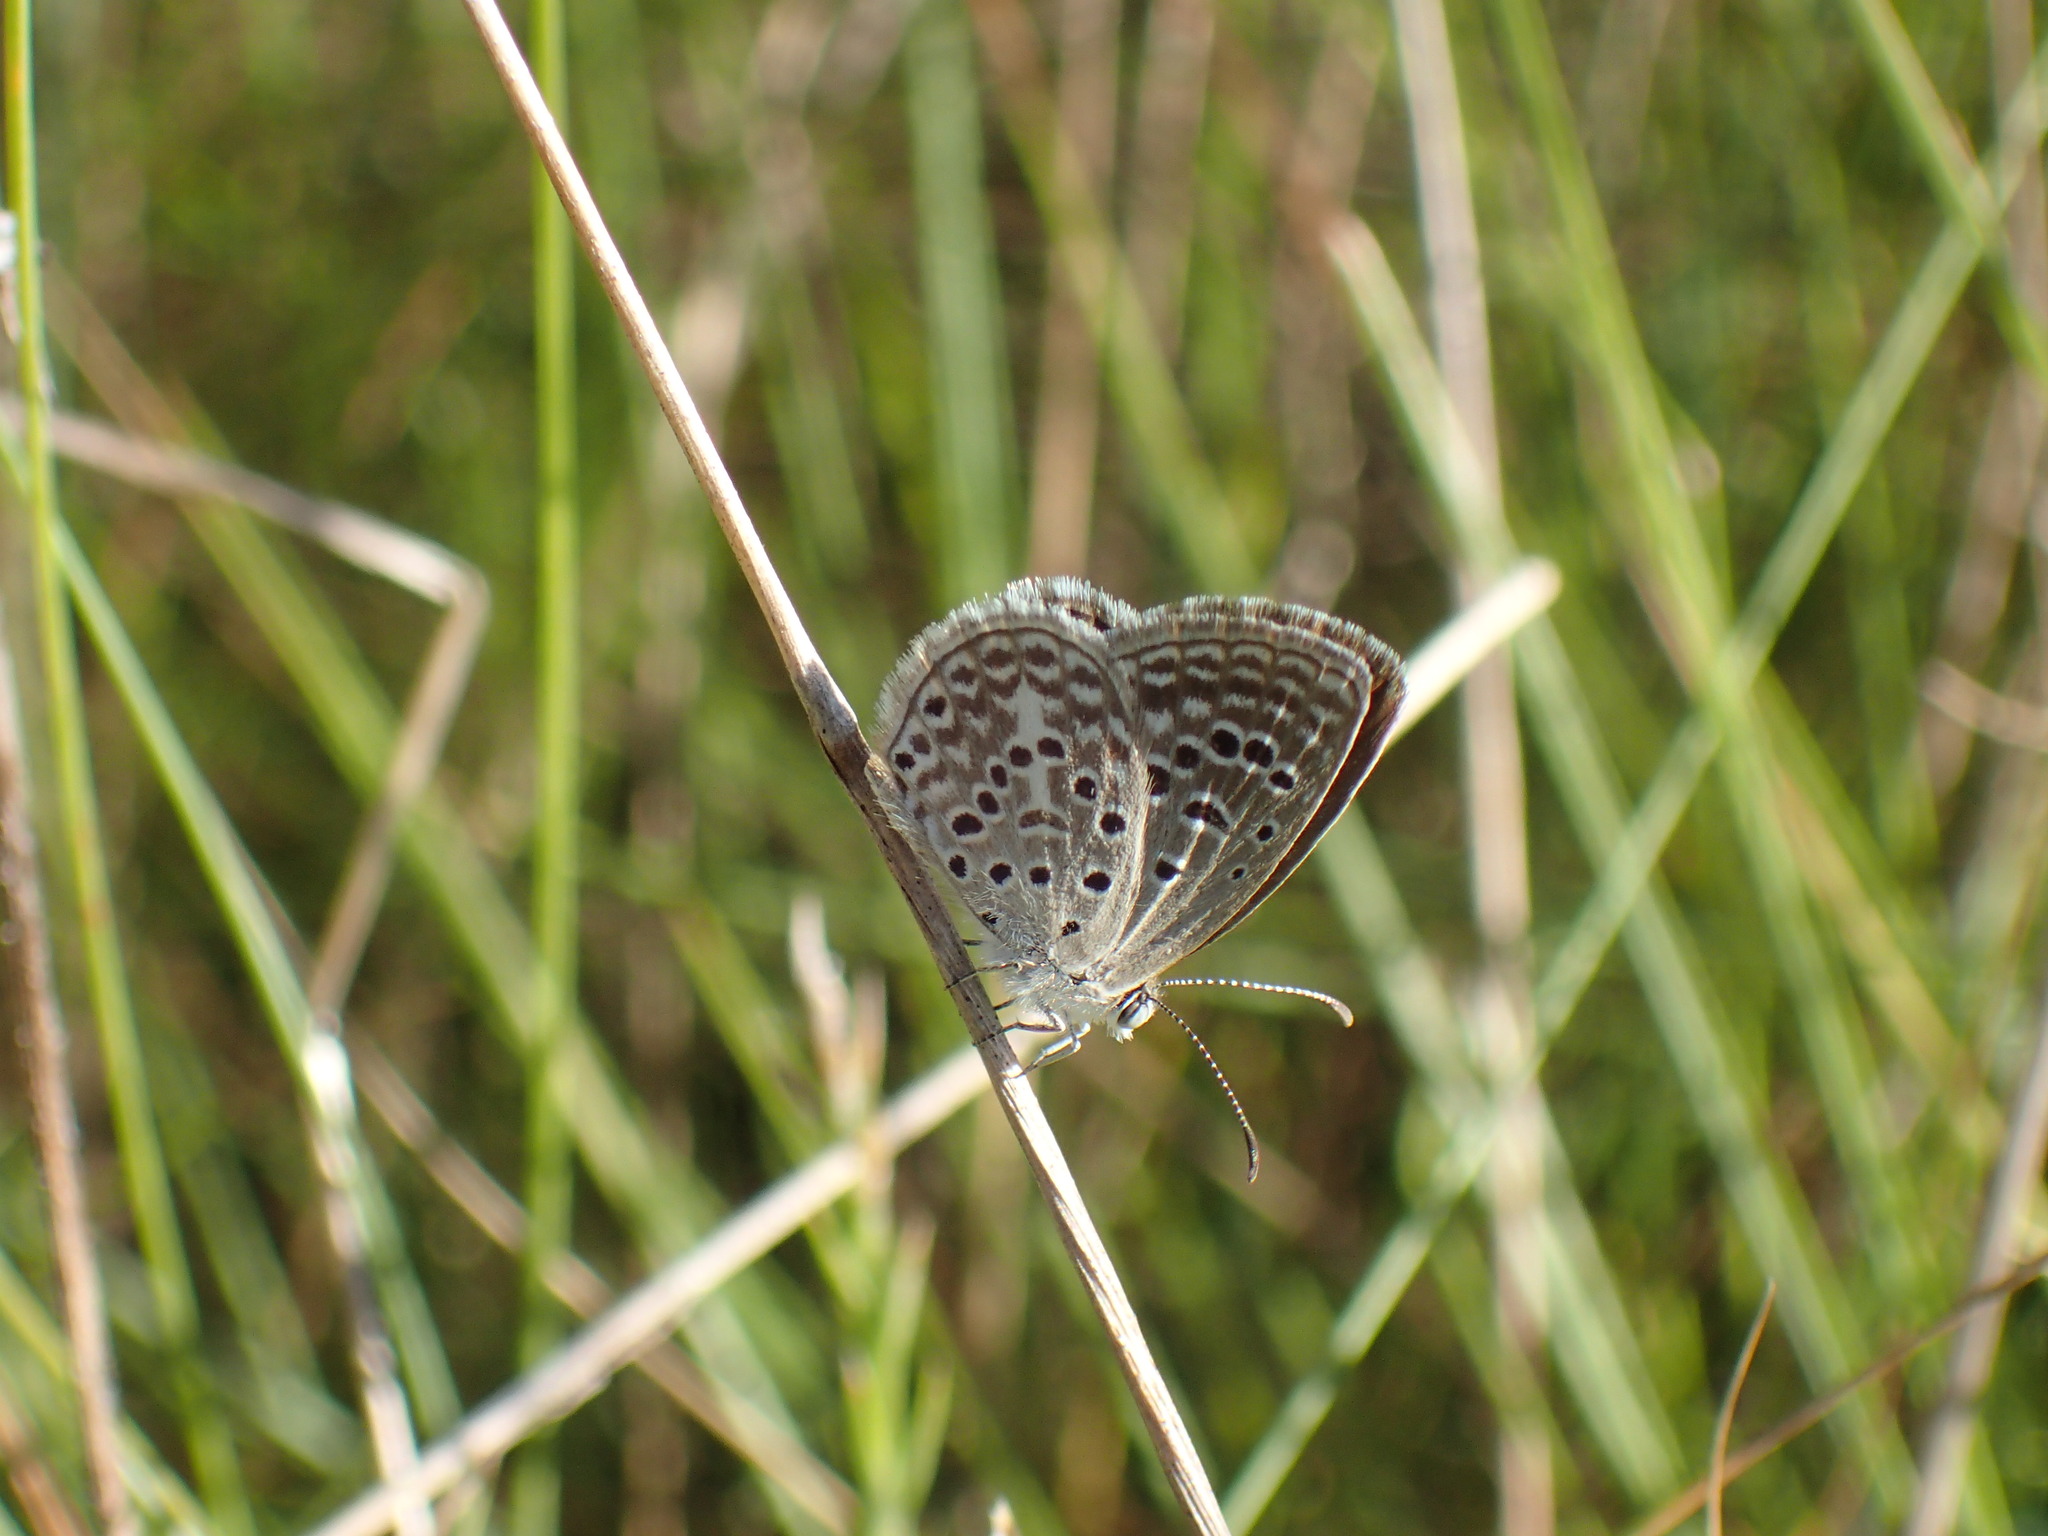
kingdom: Animalia
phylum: Arthropoda
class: Insecta
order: Lepidoptera
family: Lycaenidae
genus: Actizera
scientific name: Actizera lucida
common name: Rayed blue
